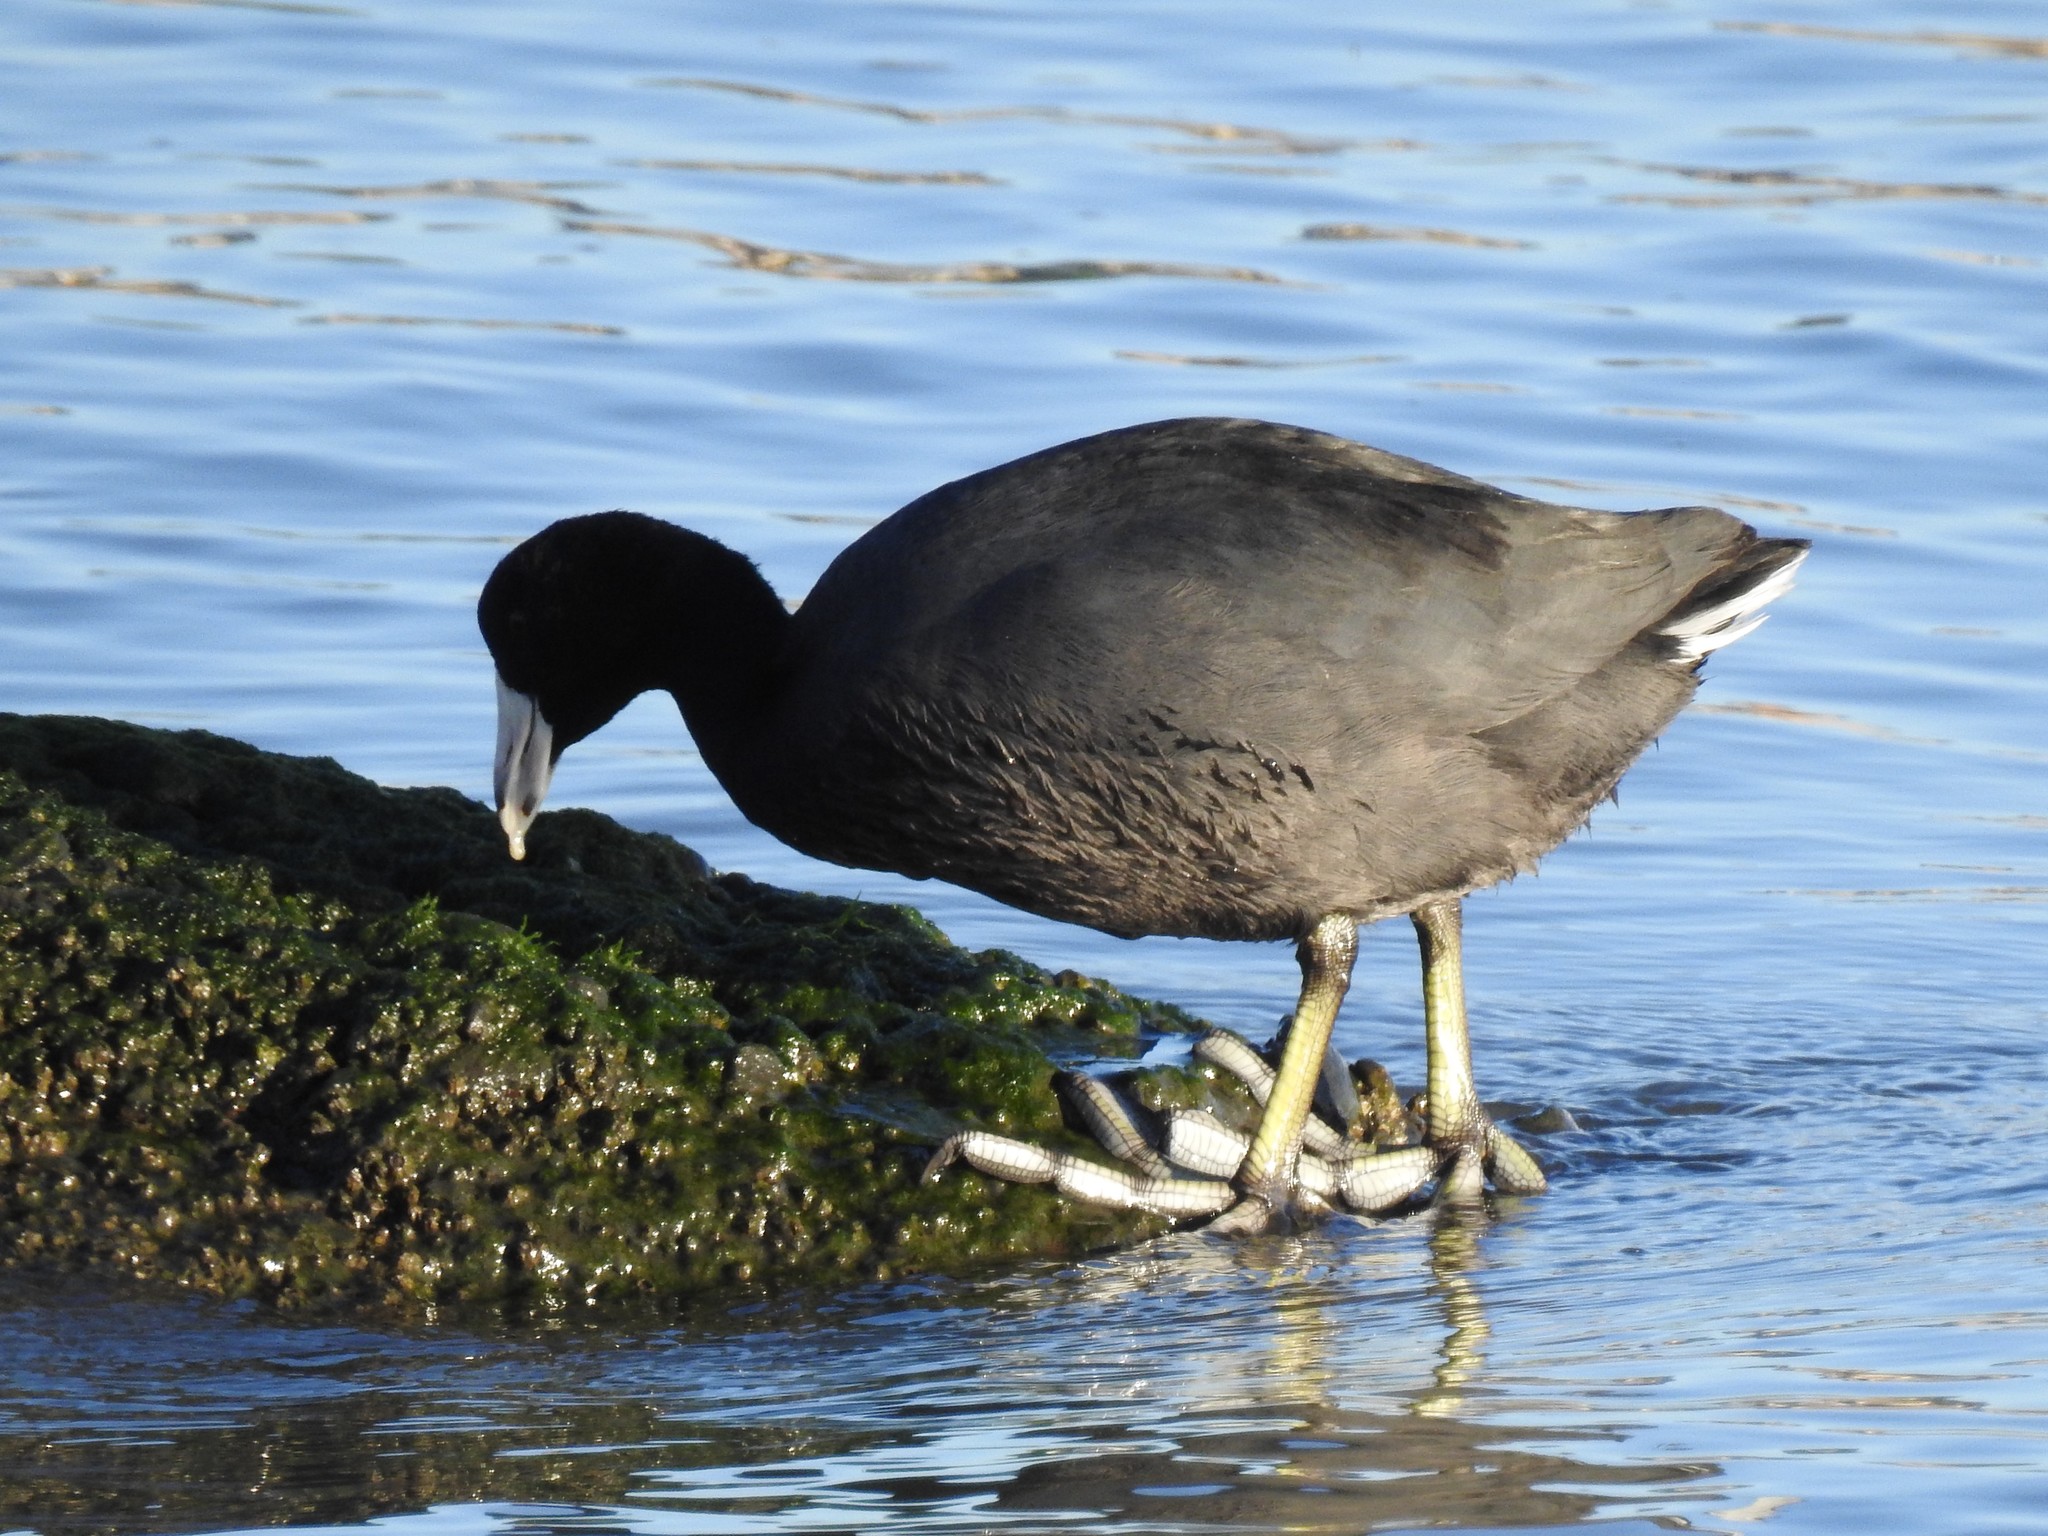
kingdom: Animalia
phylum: Chordata
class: Aves
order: Gruiformes
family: Rallidae
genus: Fulica
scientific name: Fulica americana
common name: American coot
